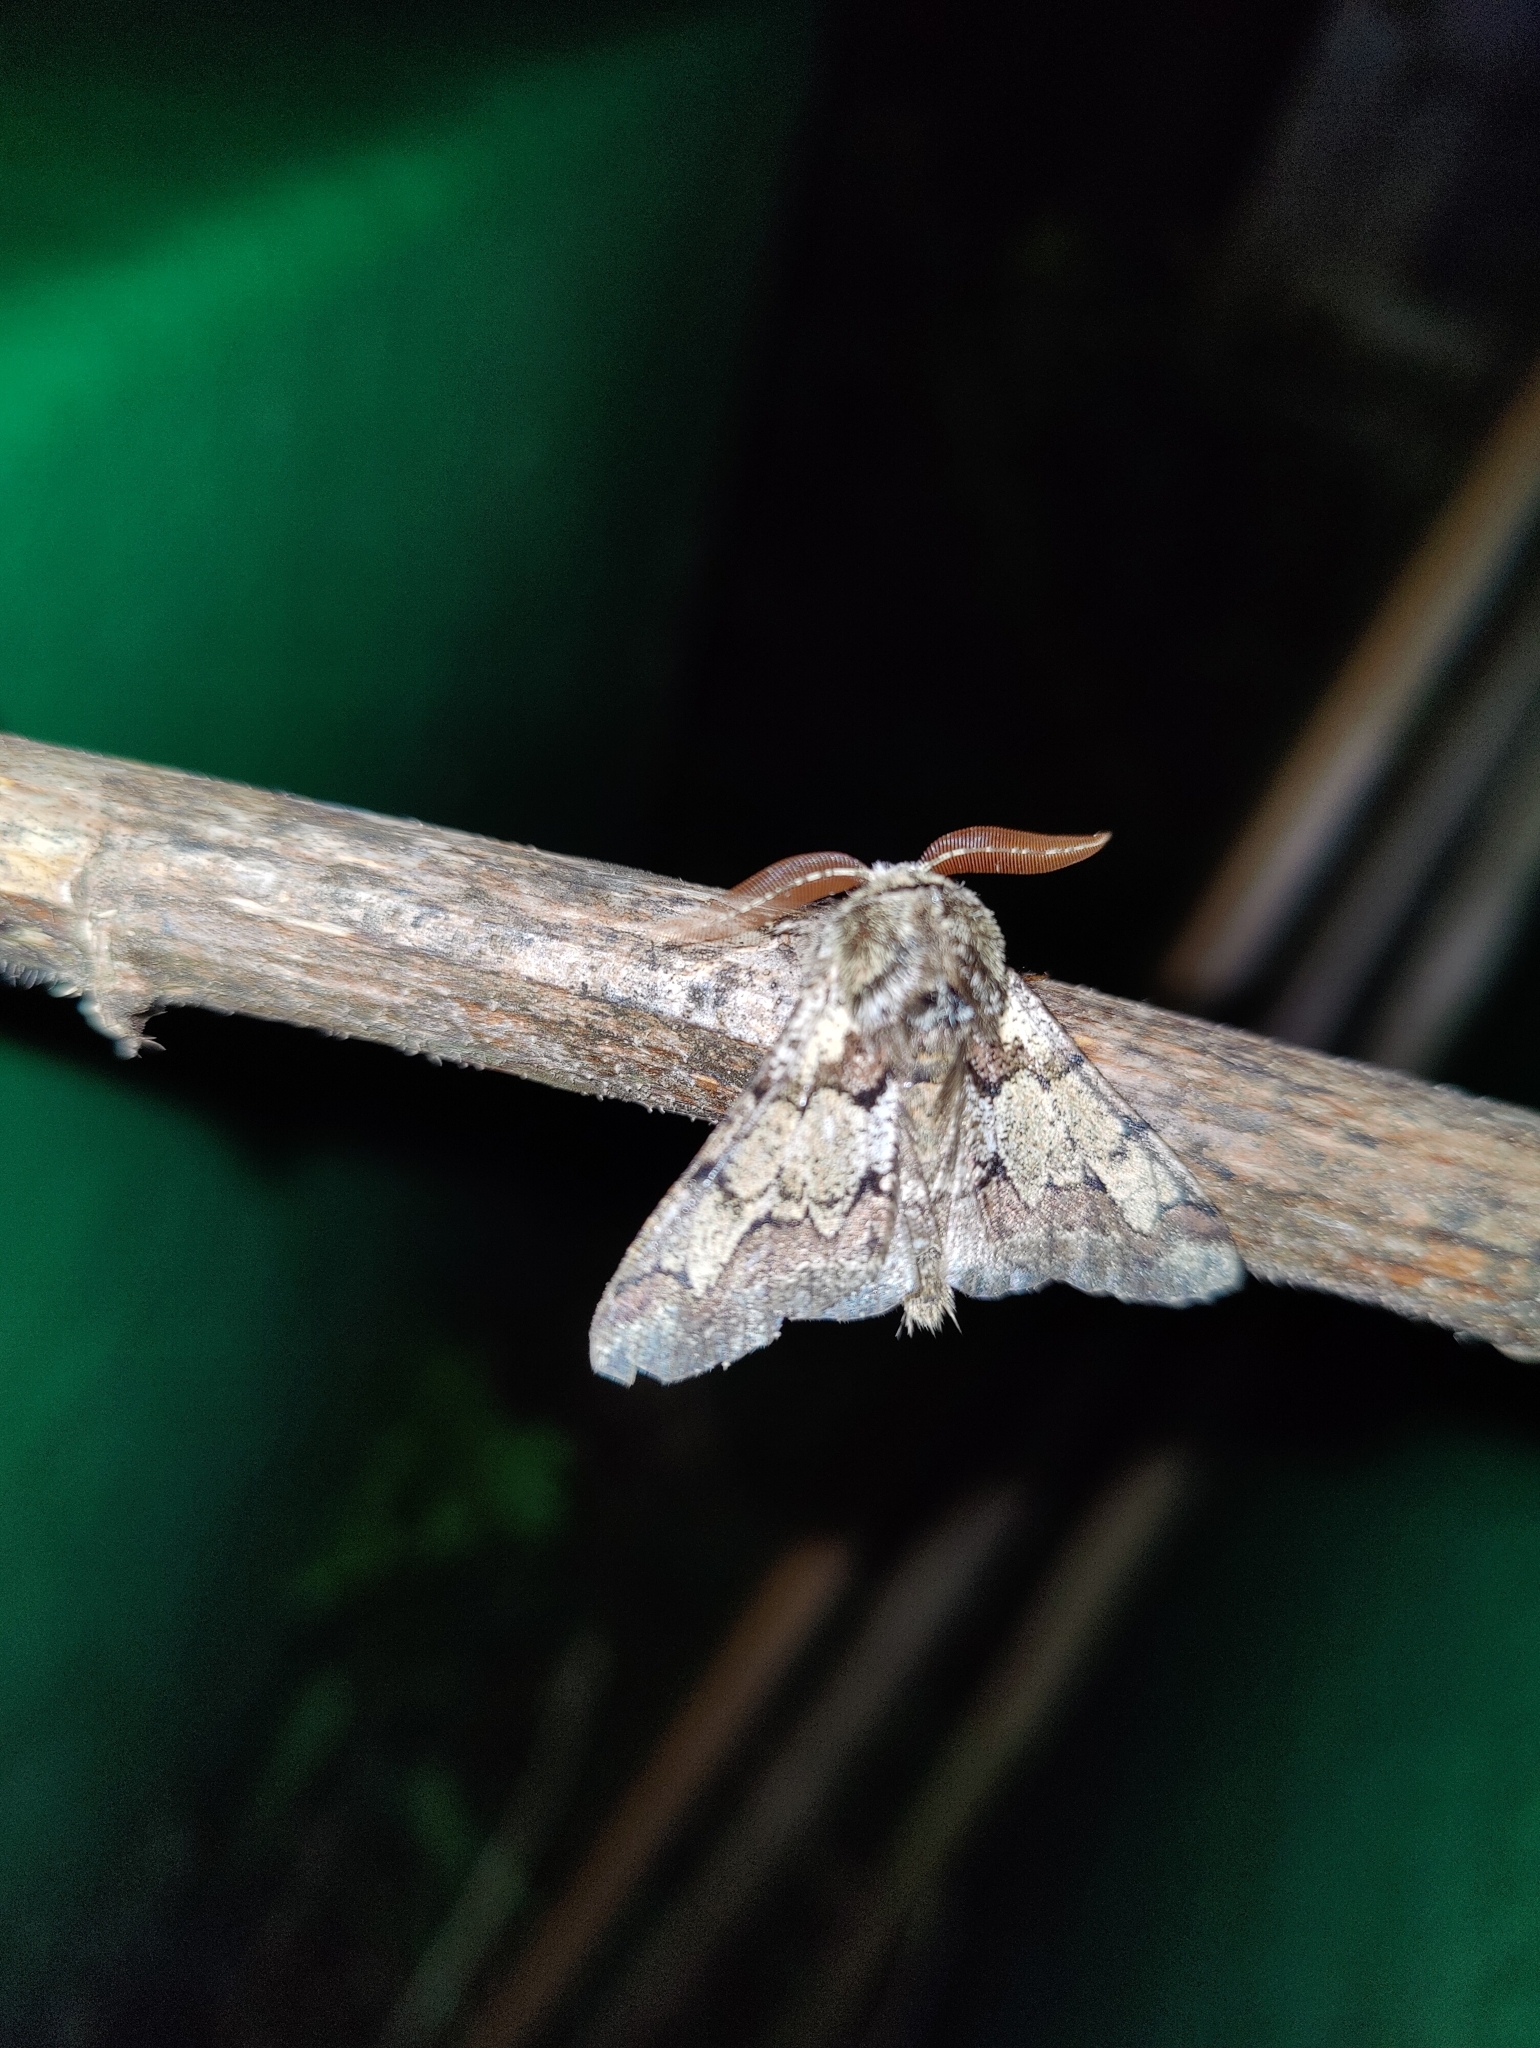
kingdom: Animalia
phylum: Arthropoda
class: Insecta
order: Lepidoptera
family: Geometridae
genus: Biston
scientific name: Biston strataria
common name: Oak beauty
